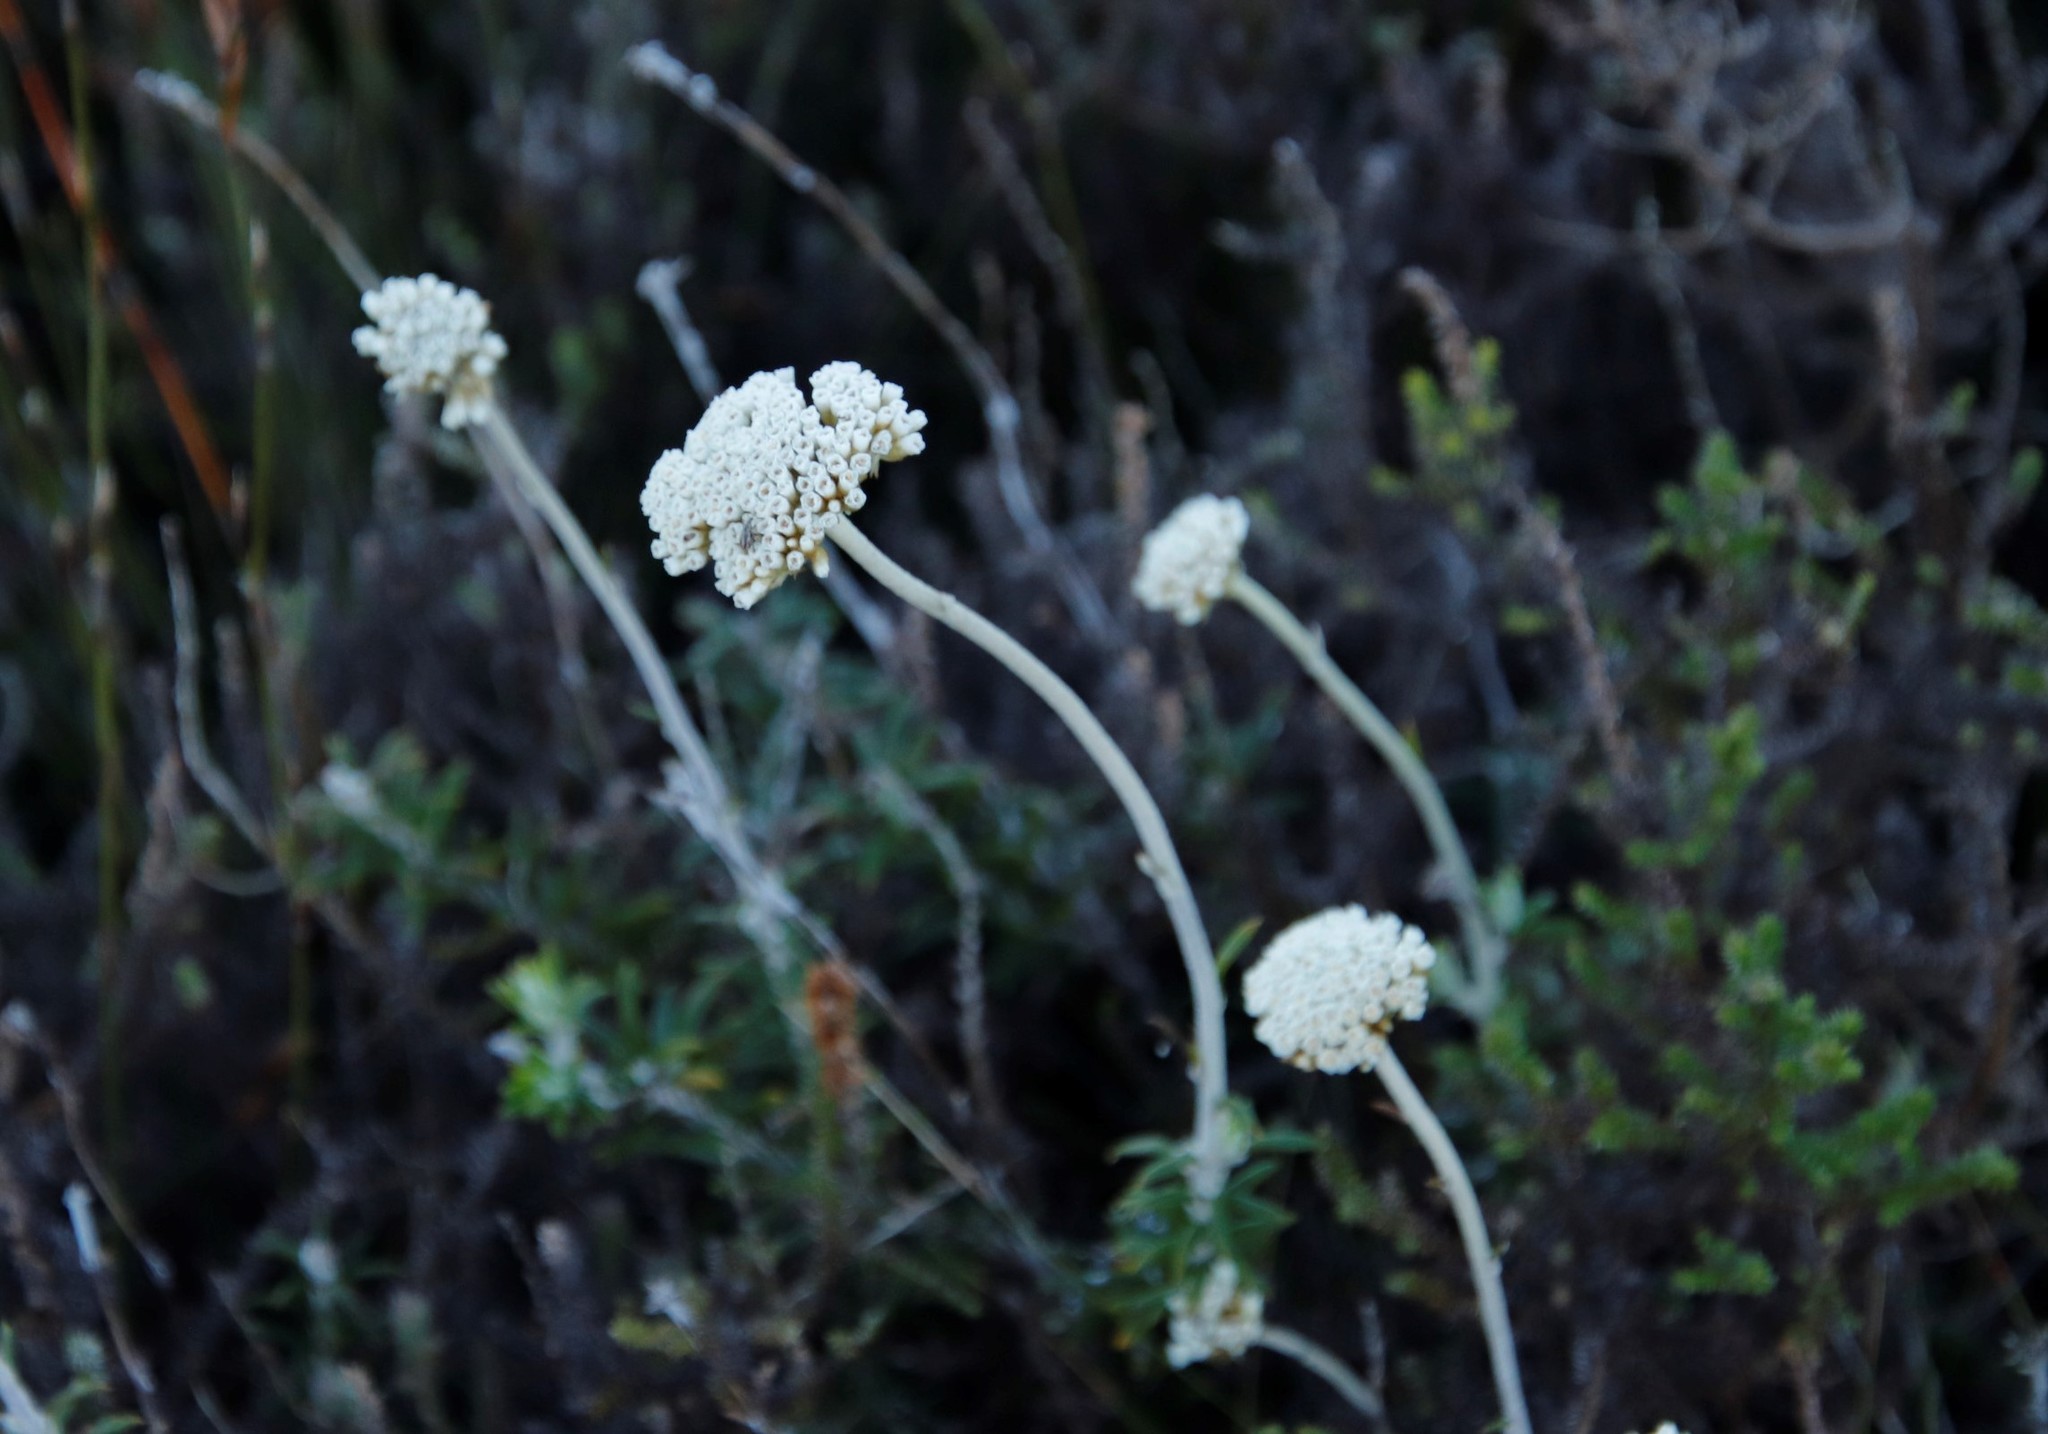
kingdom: Plantae
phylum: Tracheophyta
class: Magnoliopsida
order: Asterales
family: Asteraceae
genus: Anaxeton
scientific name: Anaxeton arborescens
